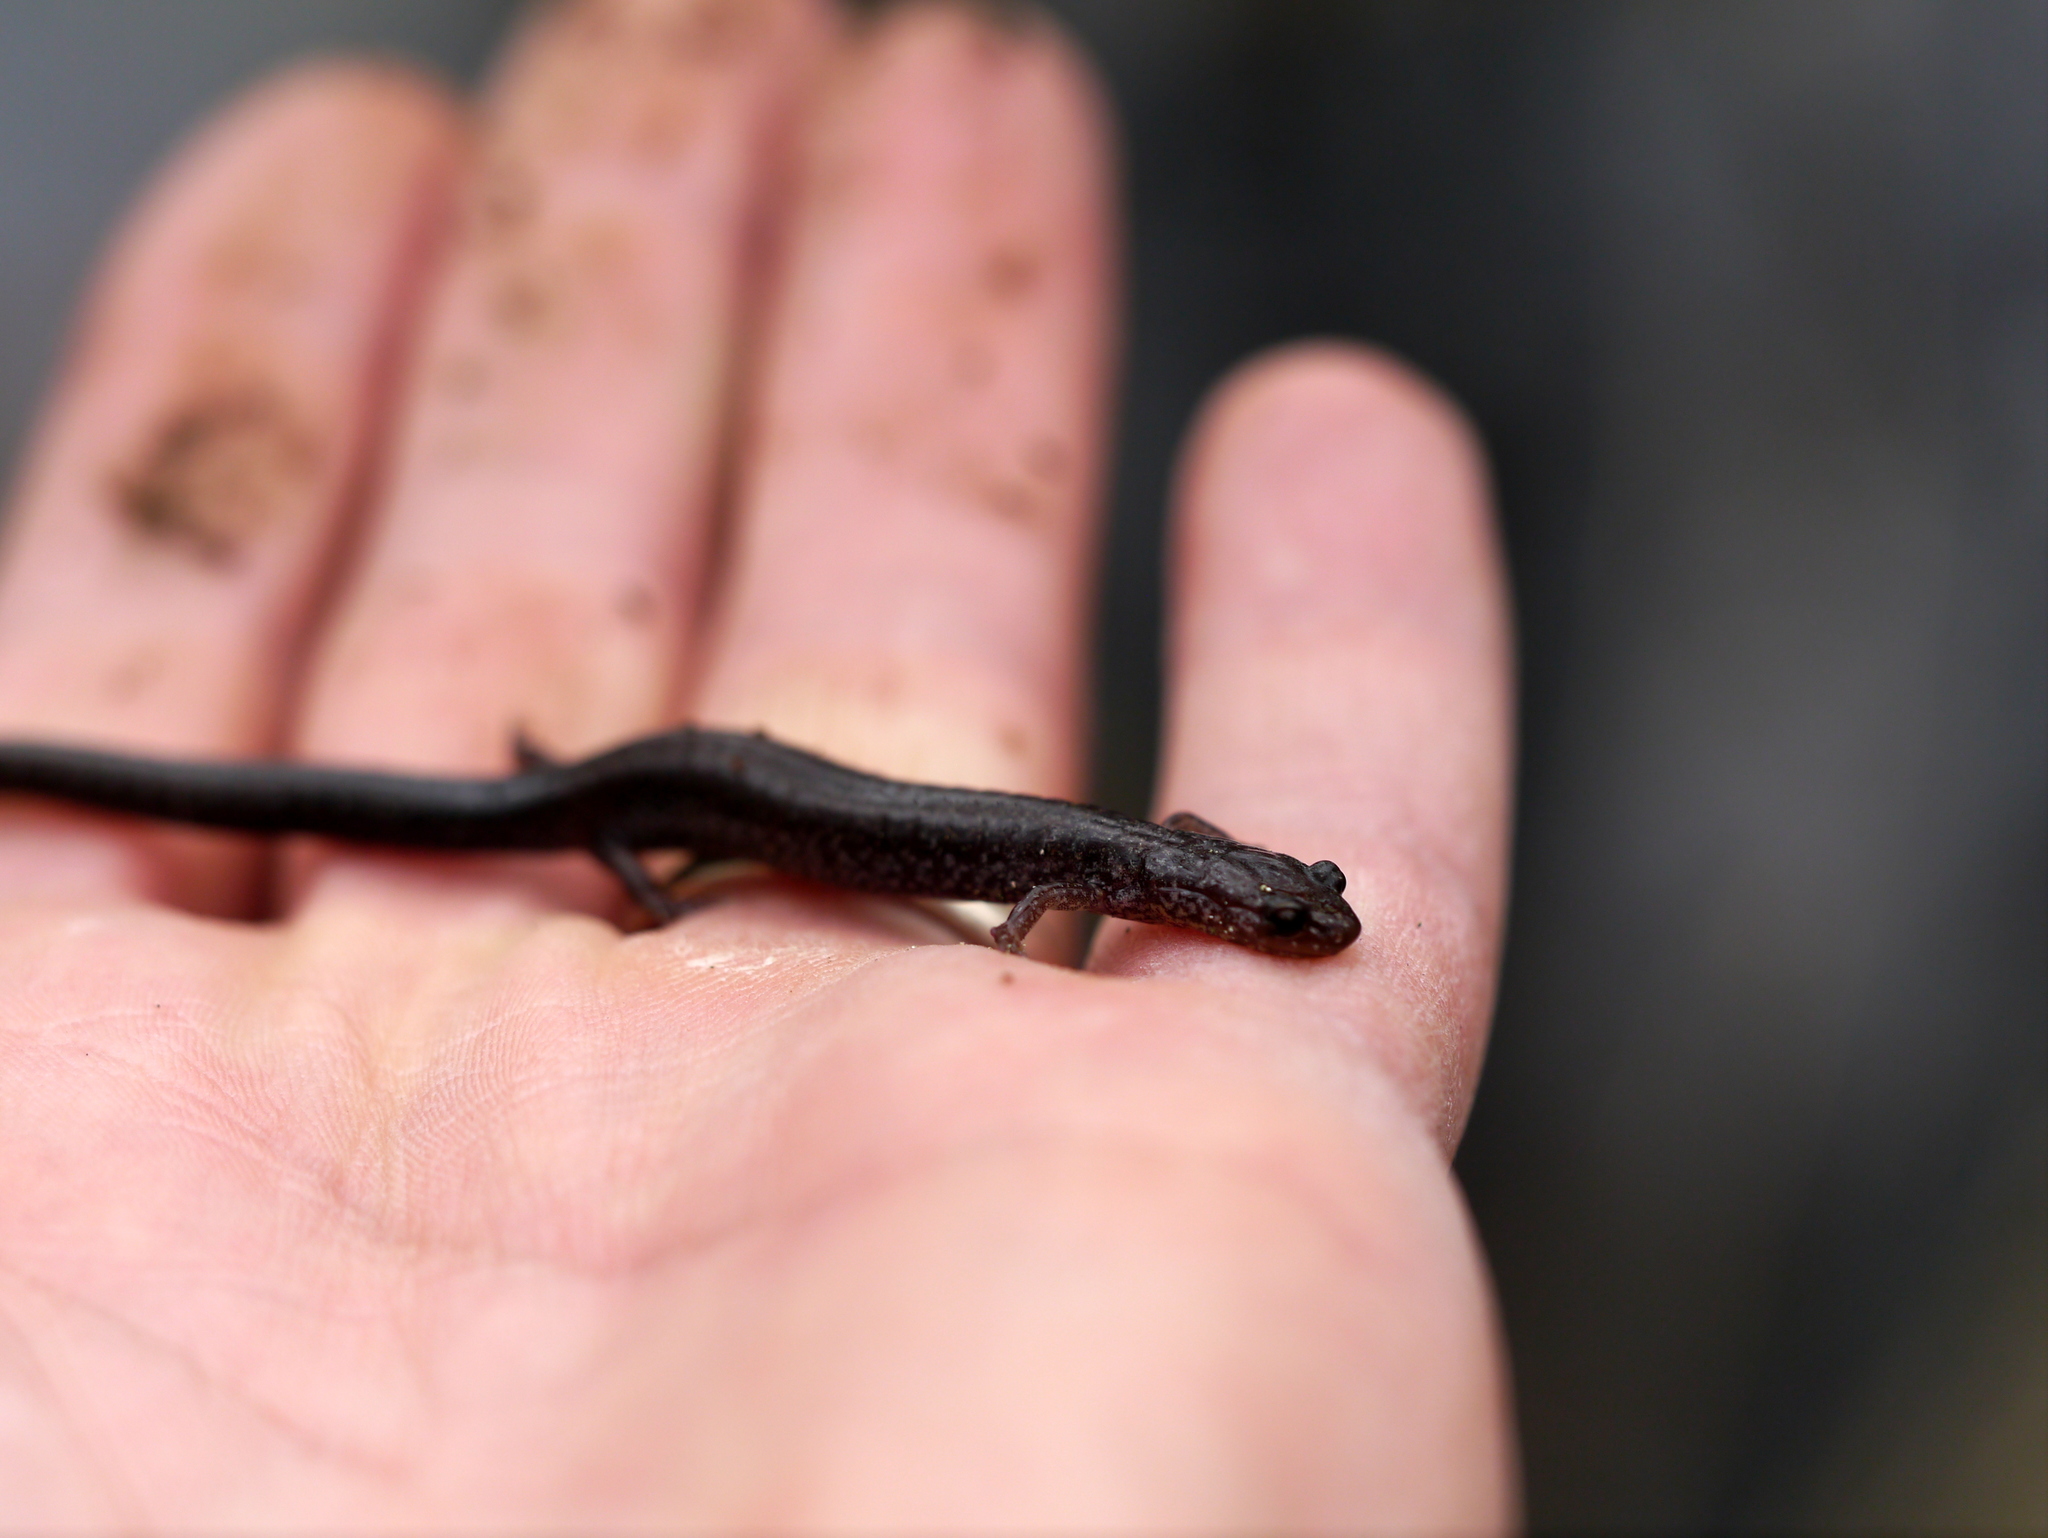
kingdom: Animalia
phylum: Chordata
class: Amphibia
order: Caudata
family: Plethodontidae
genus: Plethodon
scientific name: Plethodon cinereus
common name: Redback salamander
